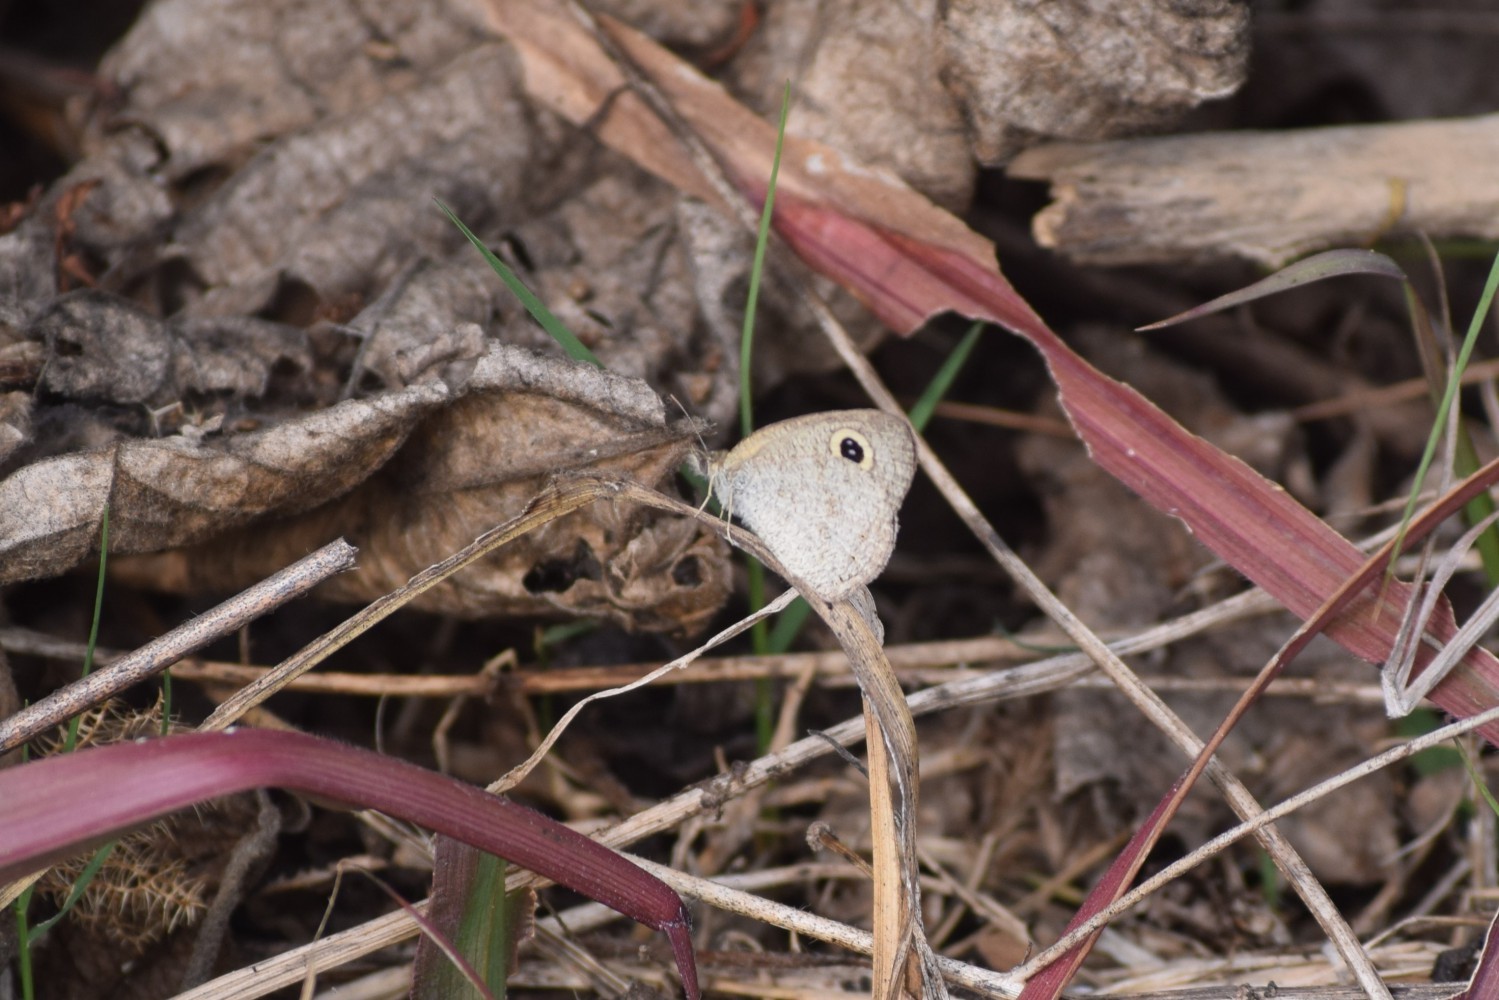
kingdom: Animalia
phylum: Arthropoda
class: Insecta
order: Lepidoptera
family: Nymphalidae
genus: Ypthima
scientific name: Ypthima baldus
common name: Common five-ring
